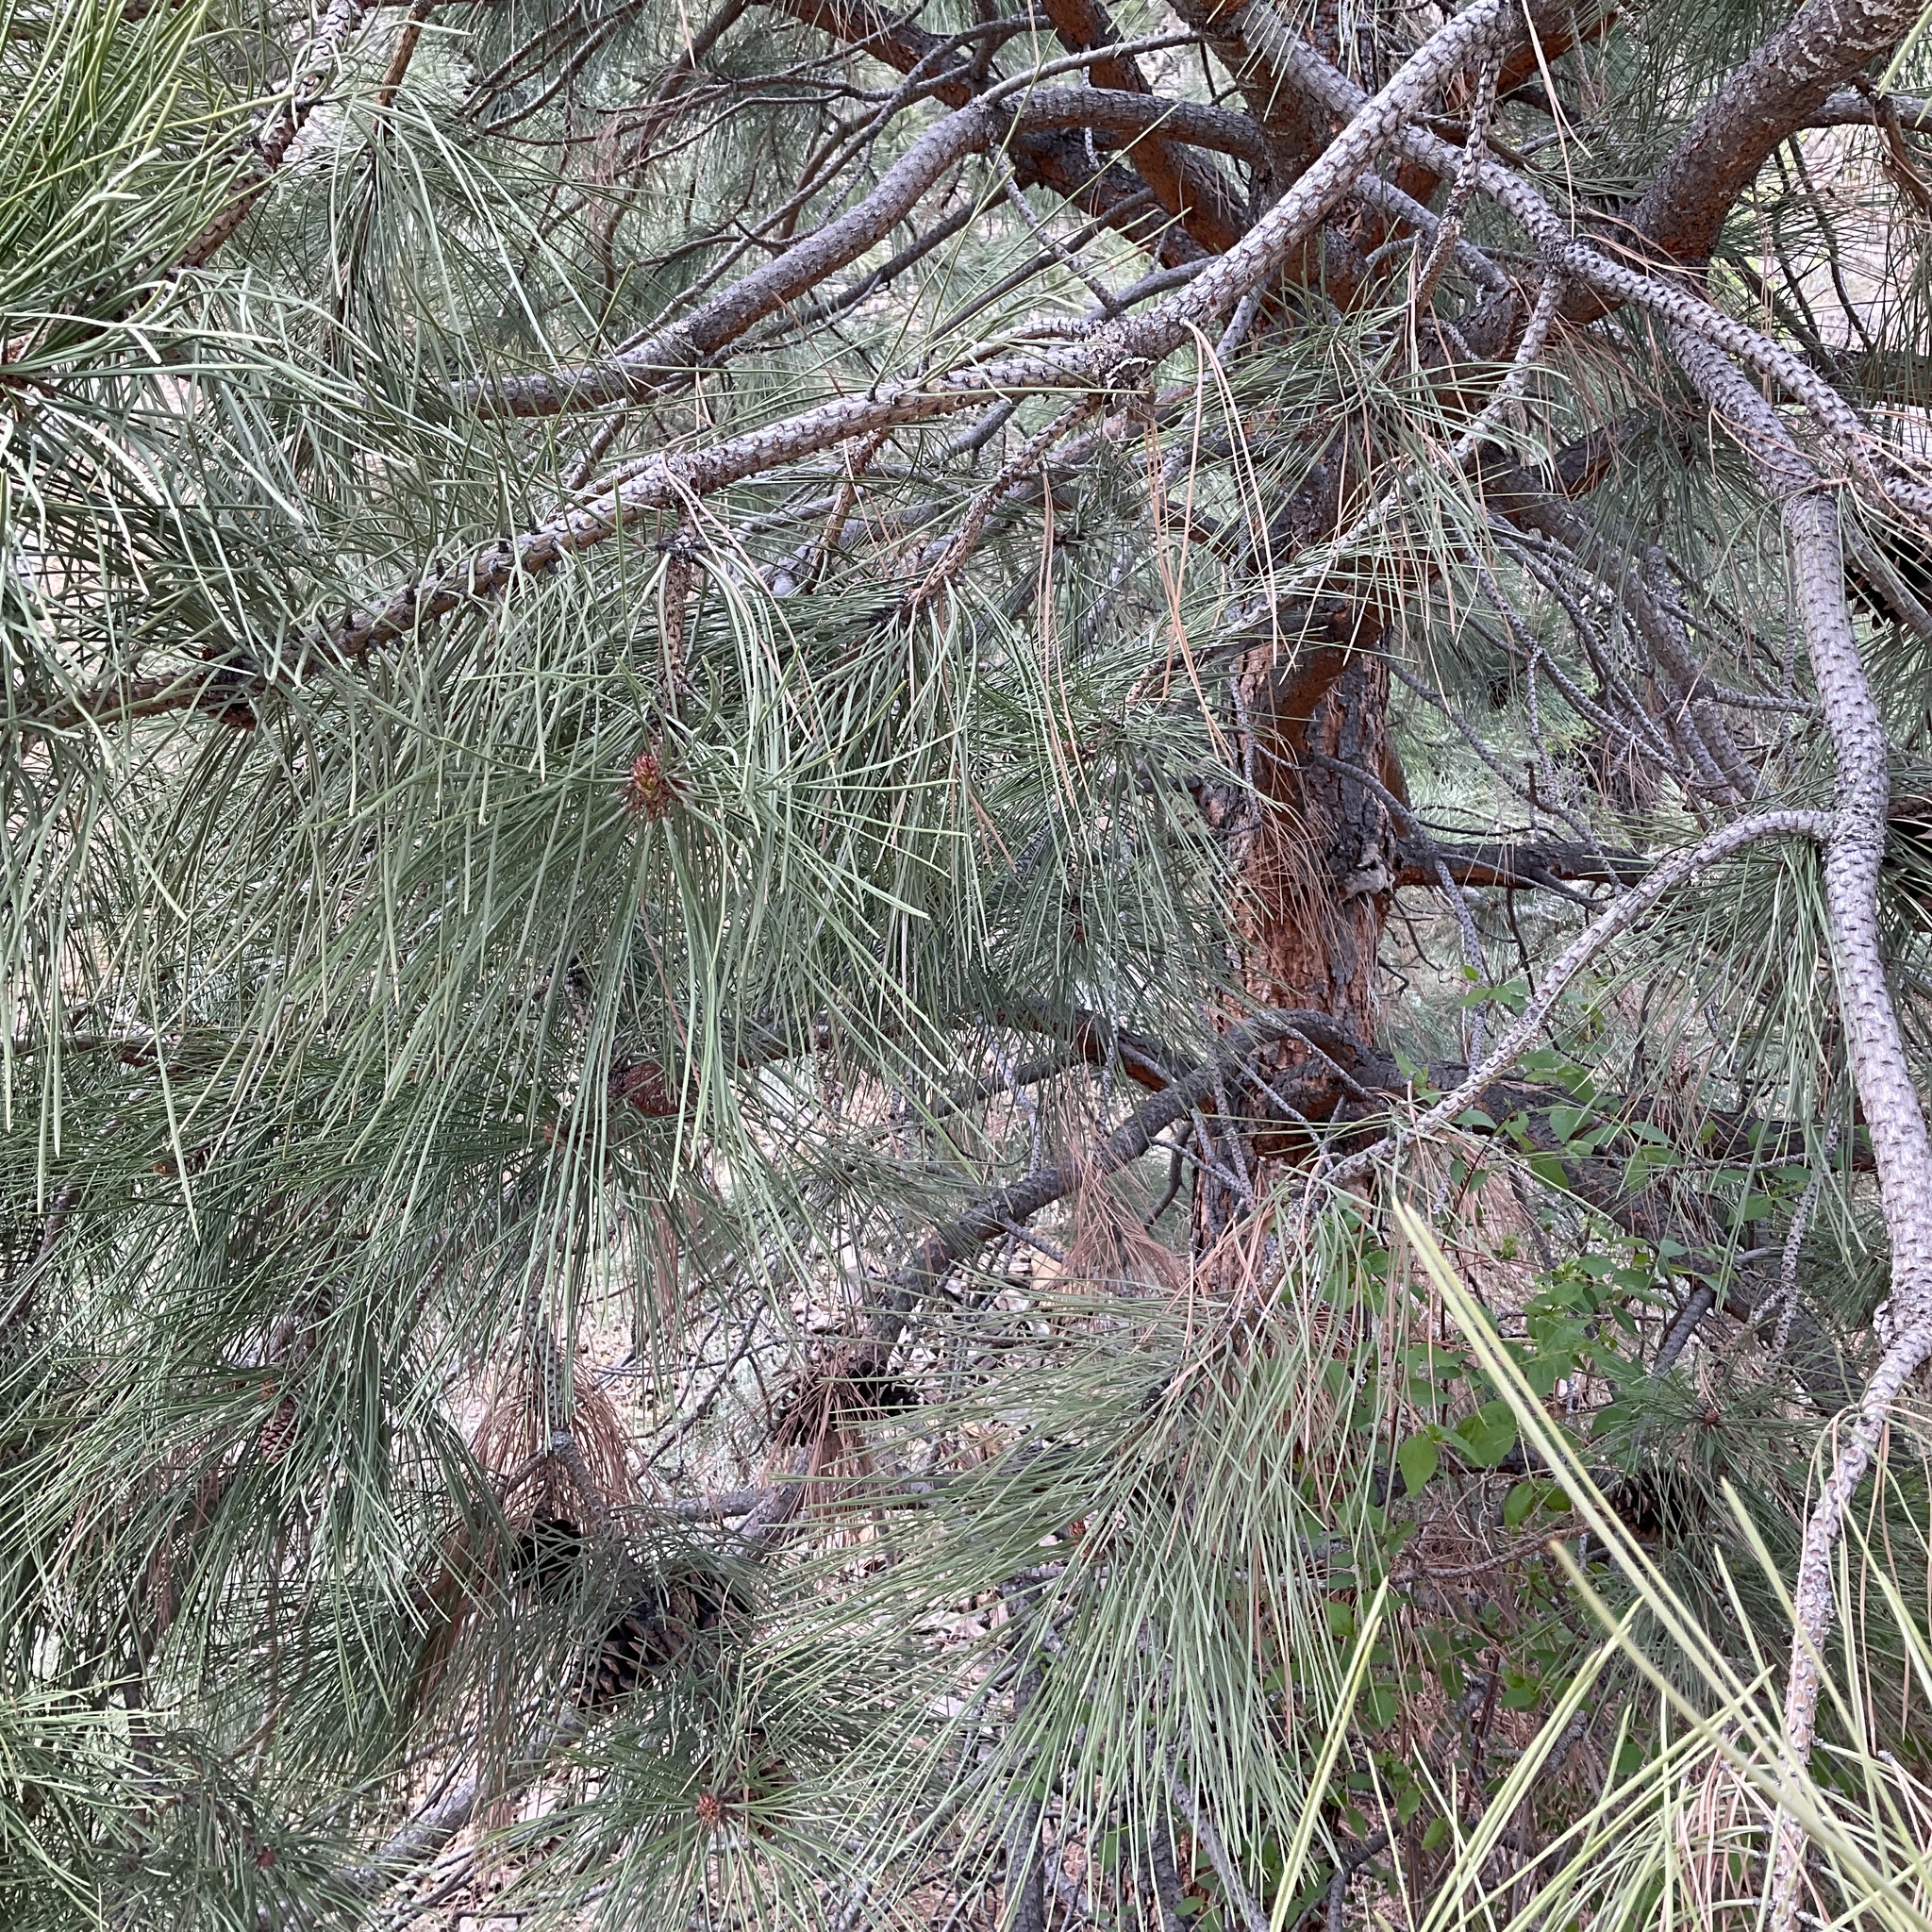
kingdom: Plantae
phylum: Tracheophyta
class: Pinopsida
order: Pinales
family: Pinaceae
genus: Pinus
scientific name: Pinus ponderosa
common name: Western yellow-pine
